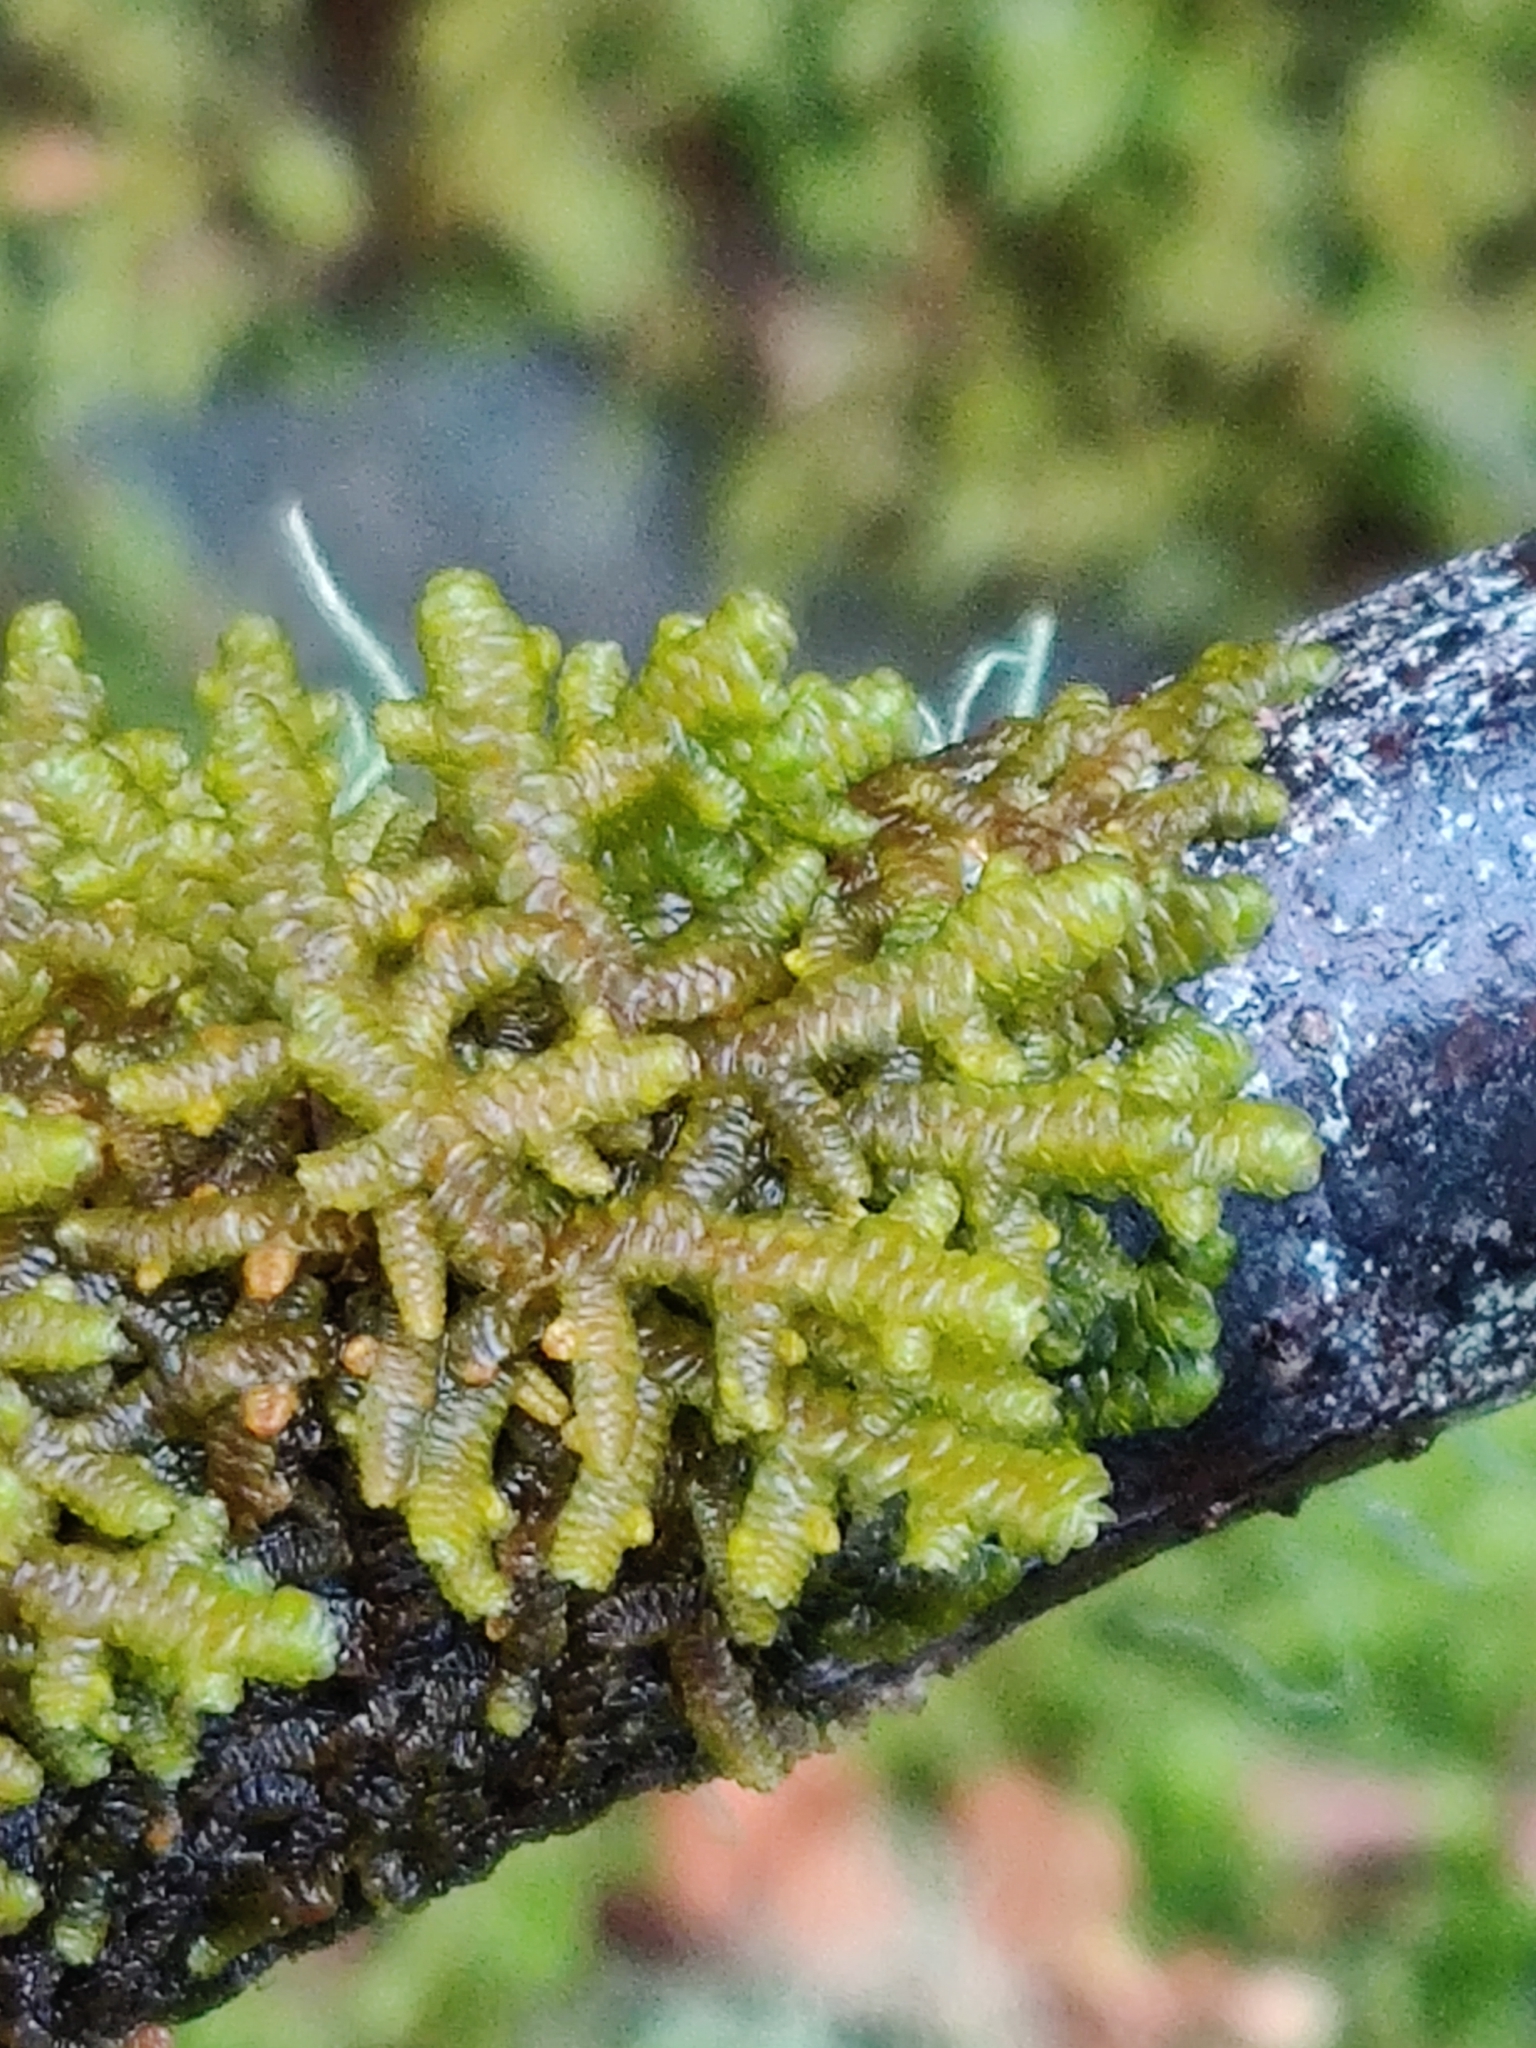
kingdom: Plantae
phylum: Marchantiophyta
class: Jungermanniopsida
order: Porellales
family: Porellaceae
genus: Porella
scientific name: Porella navicularis
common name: Tree ruffle liverwort
